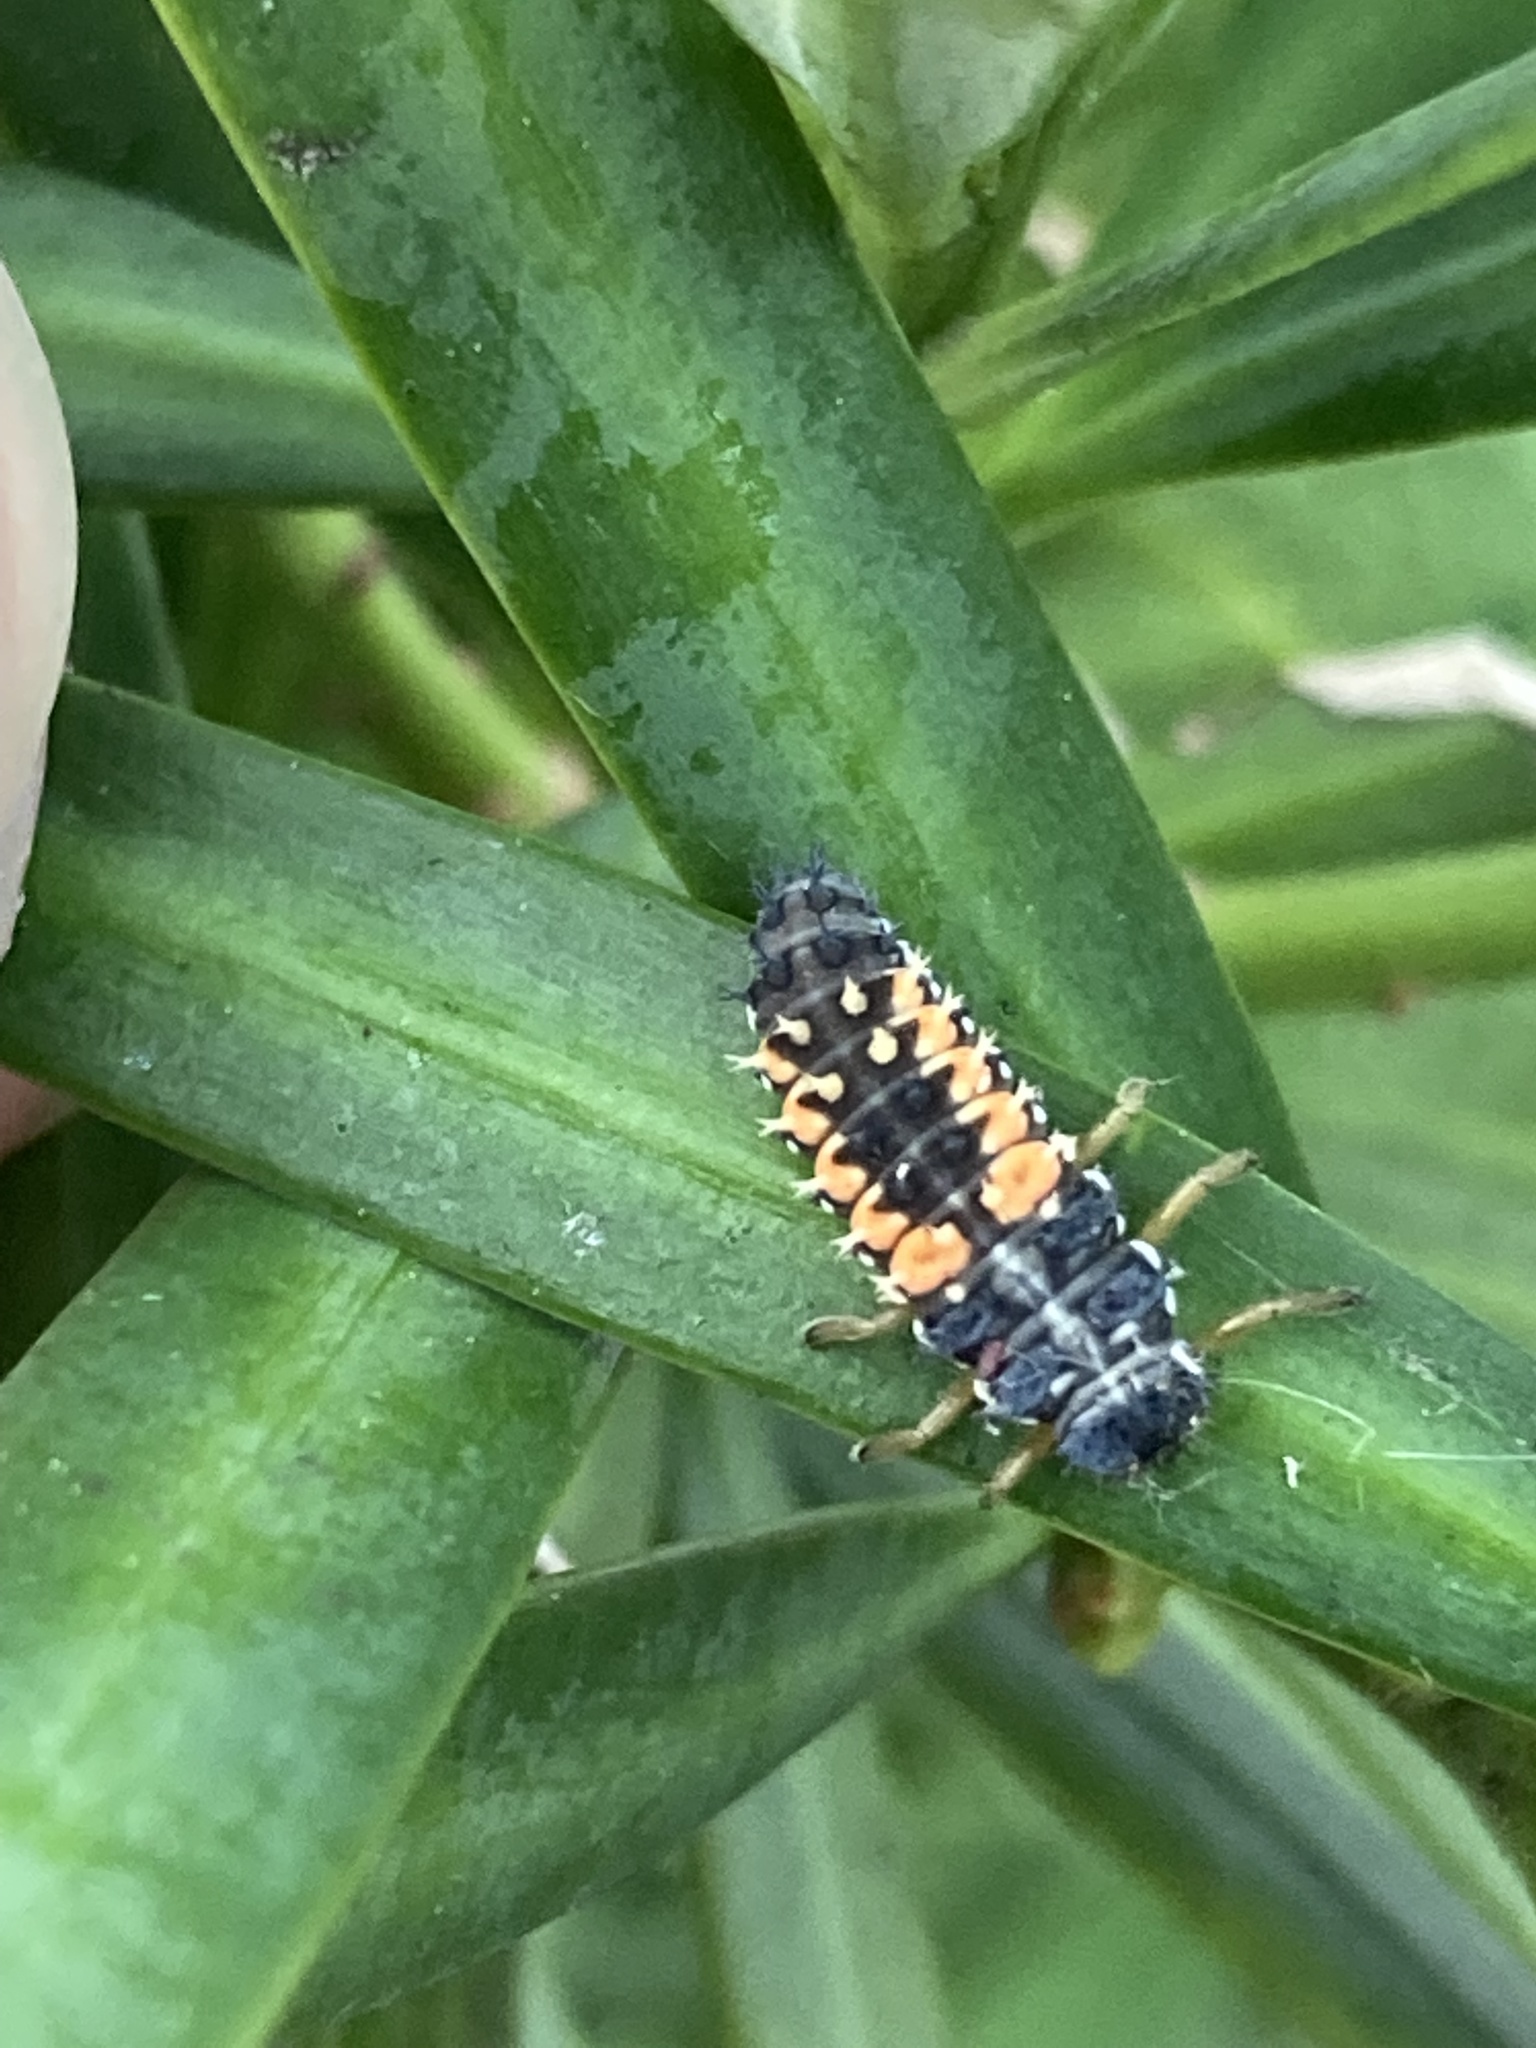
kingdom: Animalia
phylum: Arthropoda
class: Insecta
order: Coleoptera
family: Coccinellidae
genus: Harmonia
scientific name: Harmonia axyridis
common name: Harlequin ladybird
